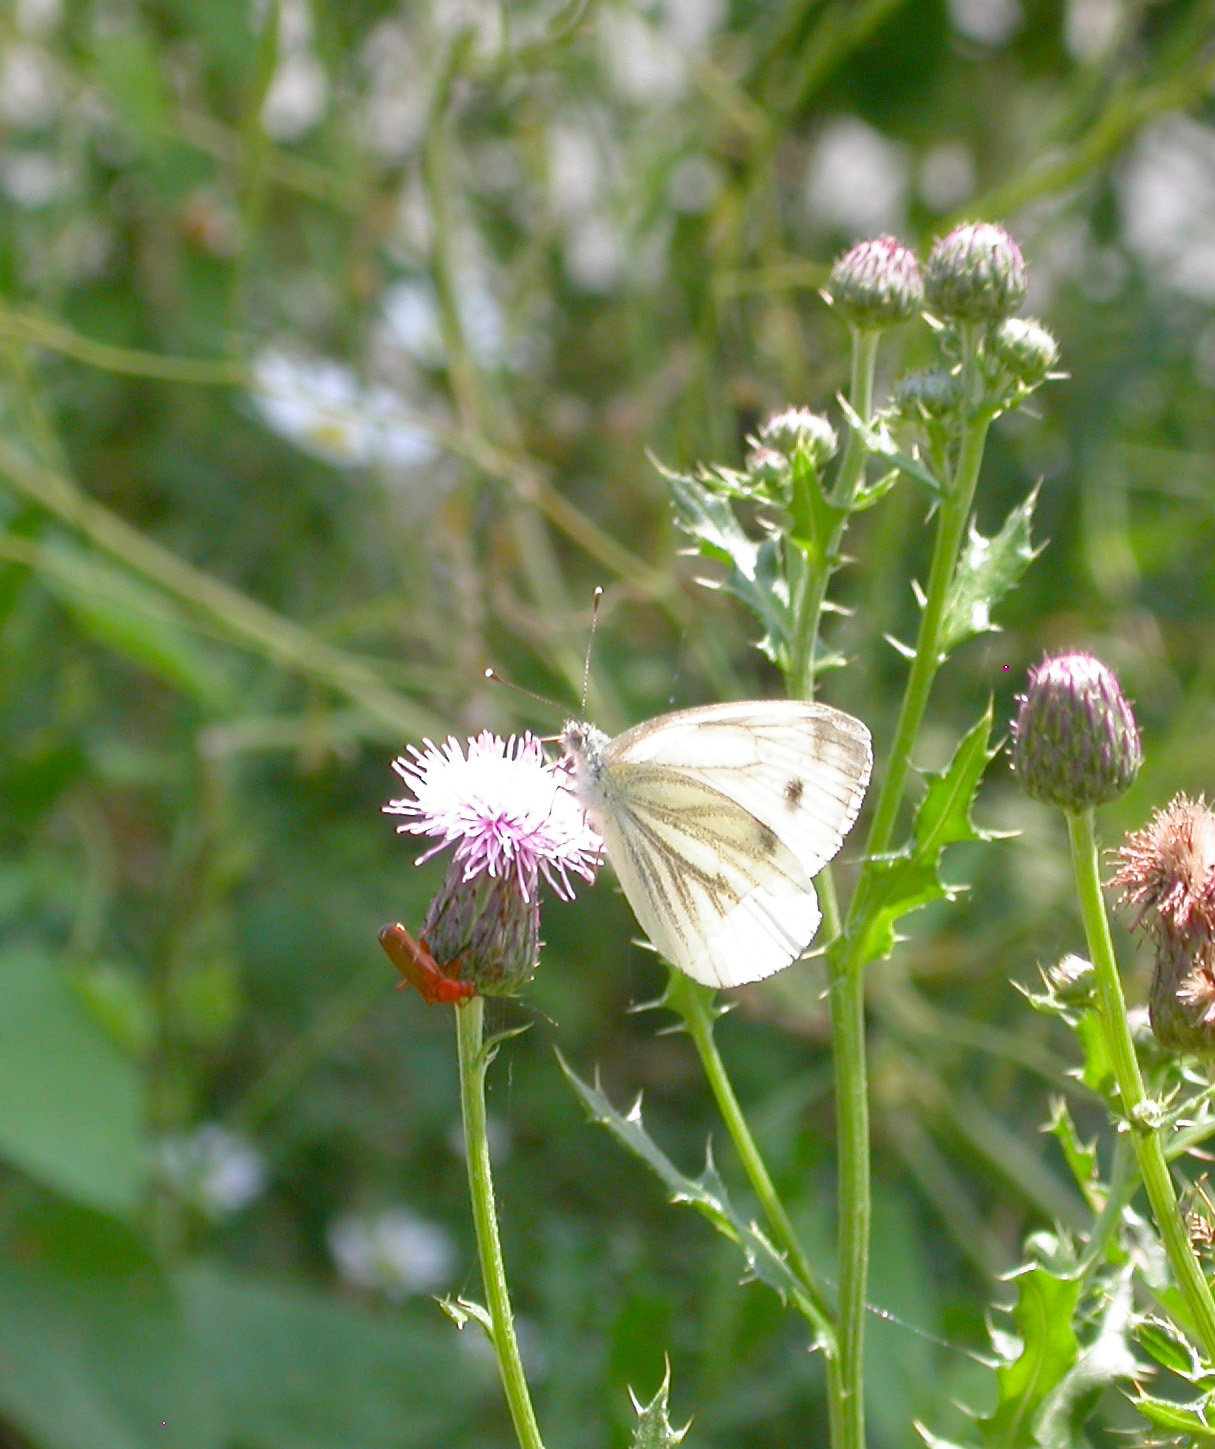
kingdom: Animalia
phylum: Arthropoda
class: Insecta
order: Lepidoptera
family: Pieridae
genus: Pieris
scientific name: Pieris napi
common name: Green-veined white
